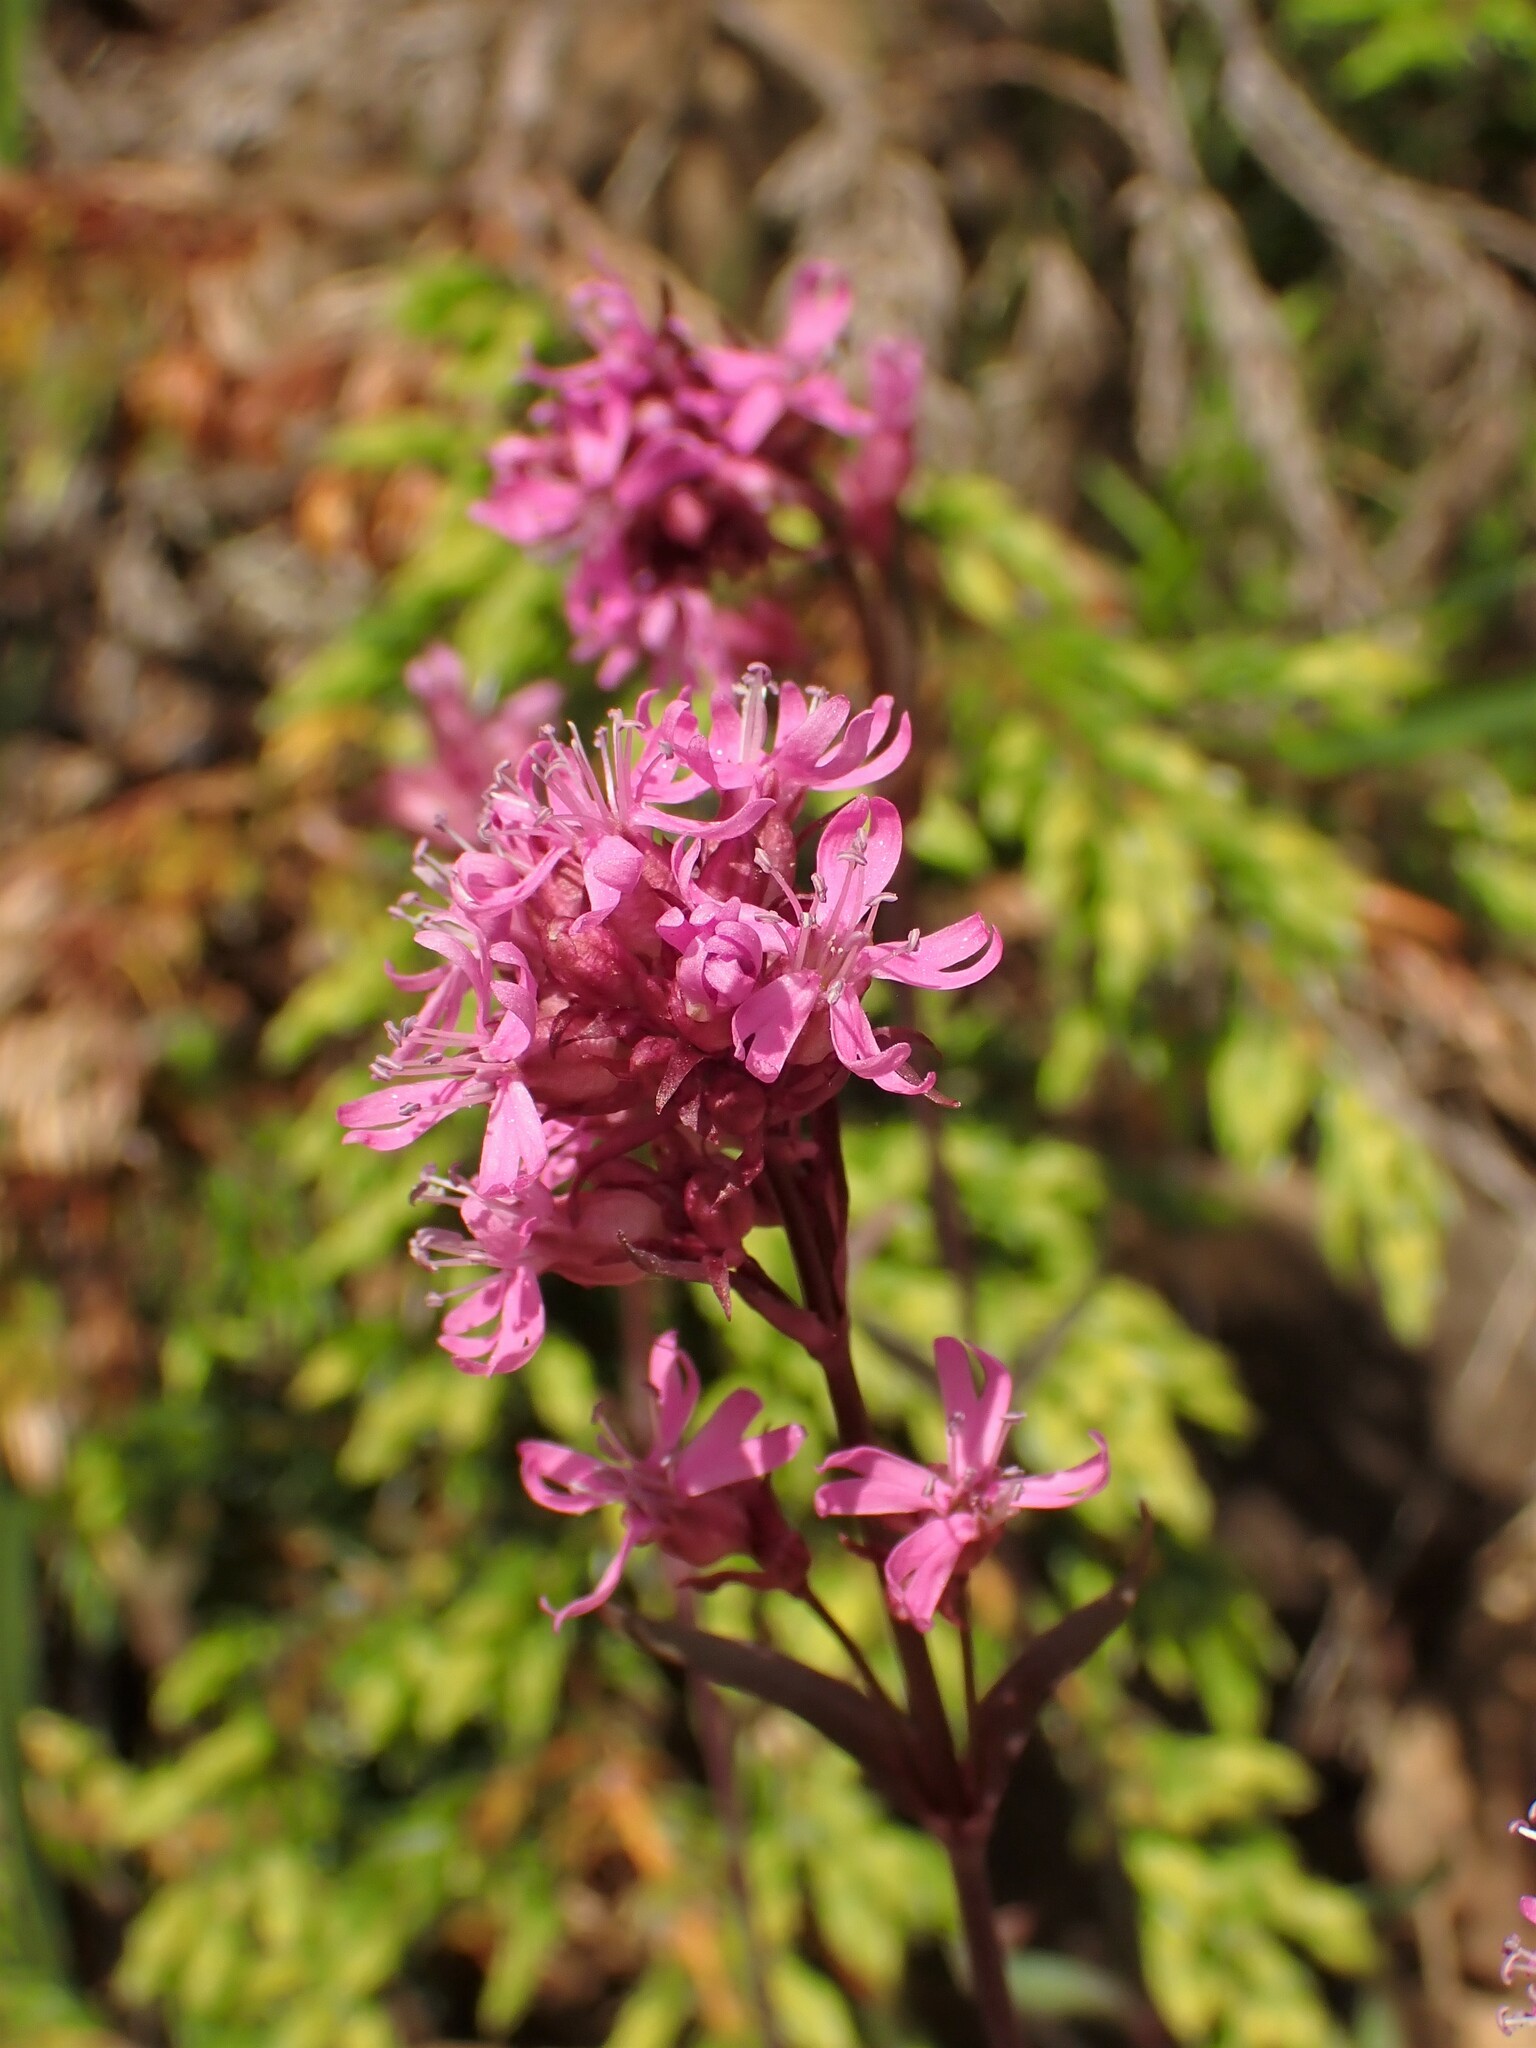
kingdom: Plantae
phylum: Tracheophyta
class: Magnoliopsida
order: Caryophyllales
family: Caryophyllaceae
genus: Viscaria
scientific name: Viscaria alpina
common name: Alpine campion
